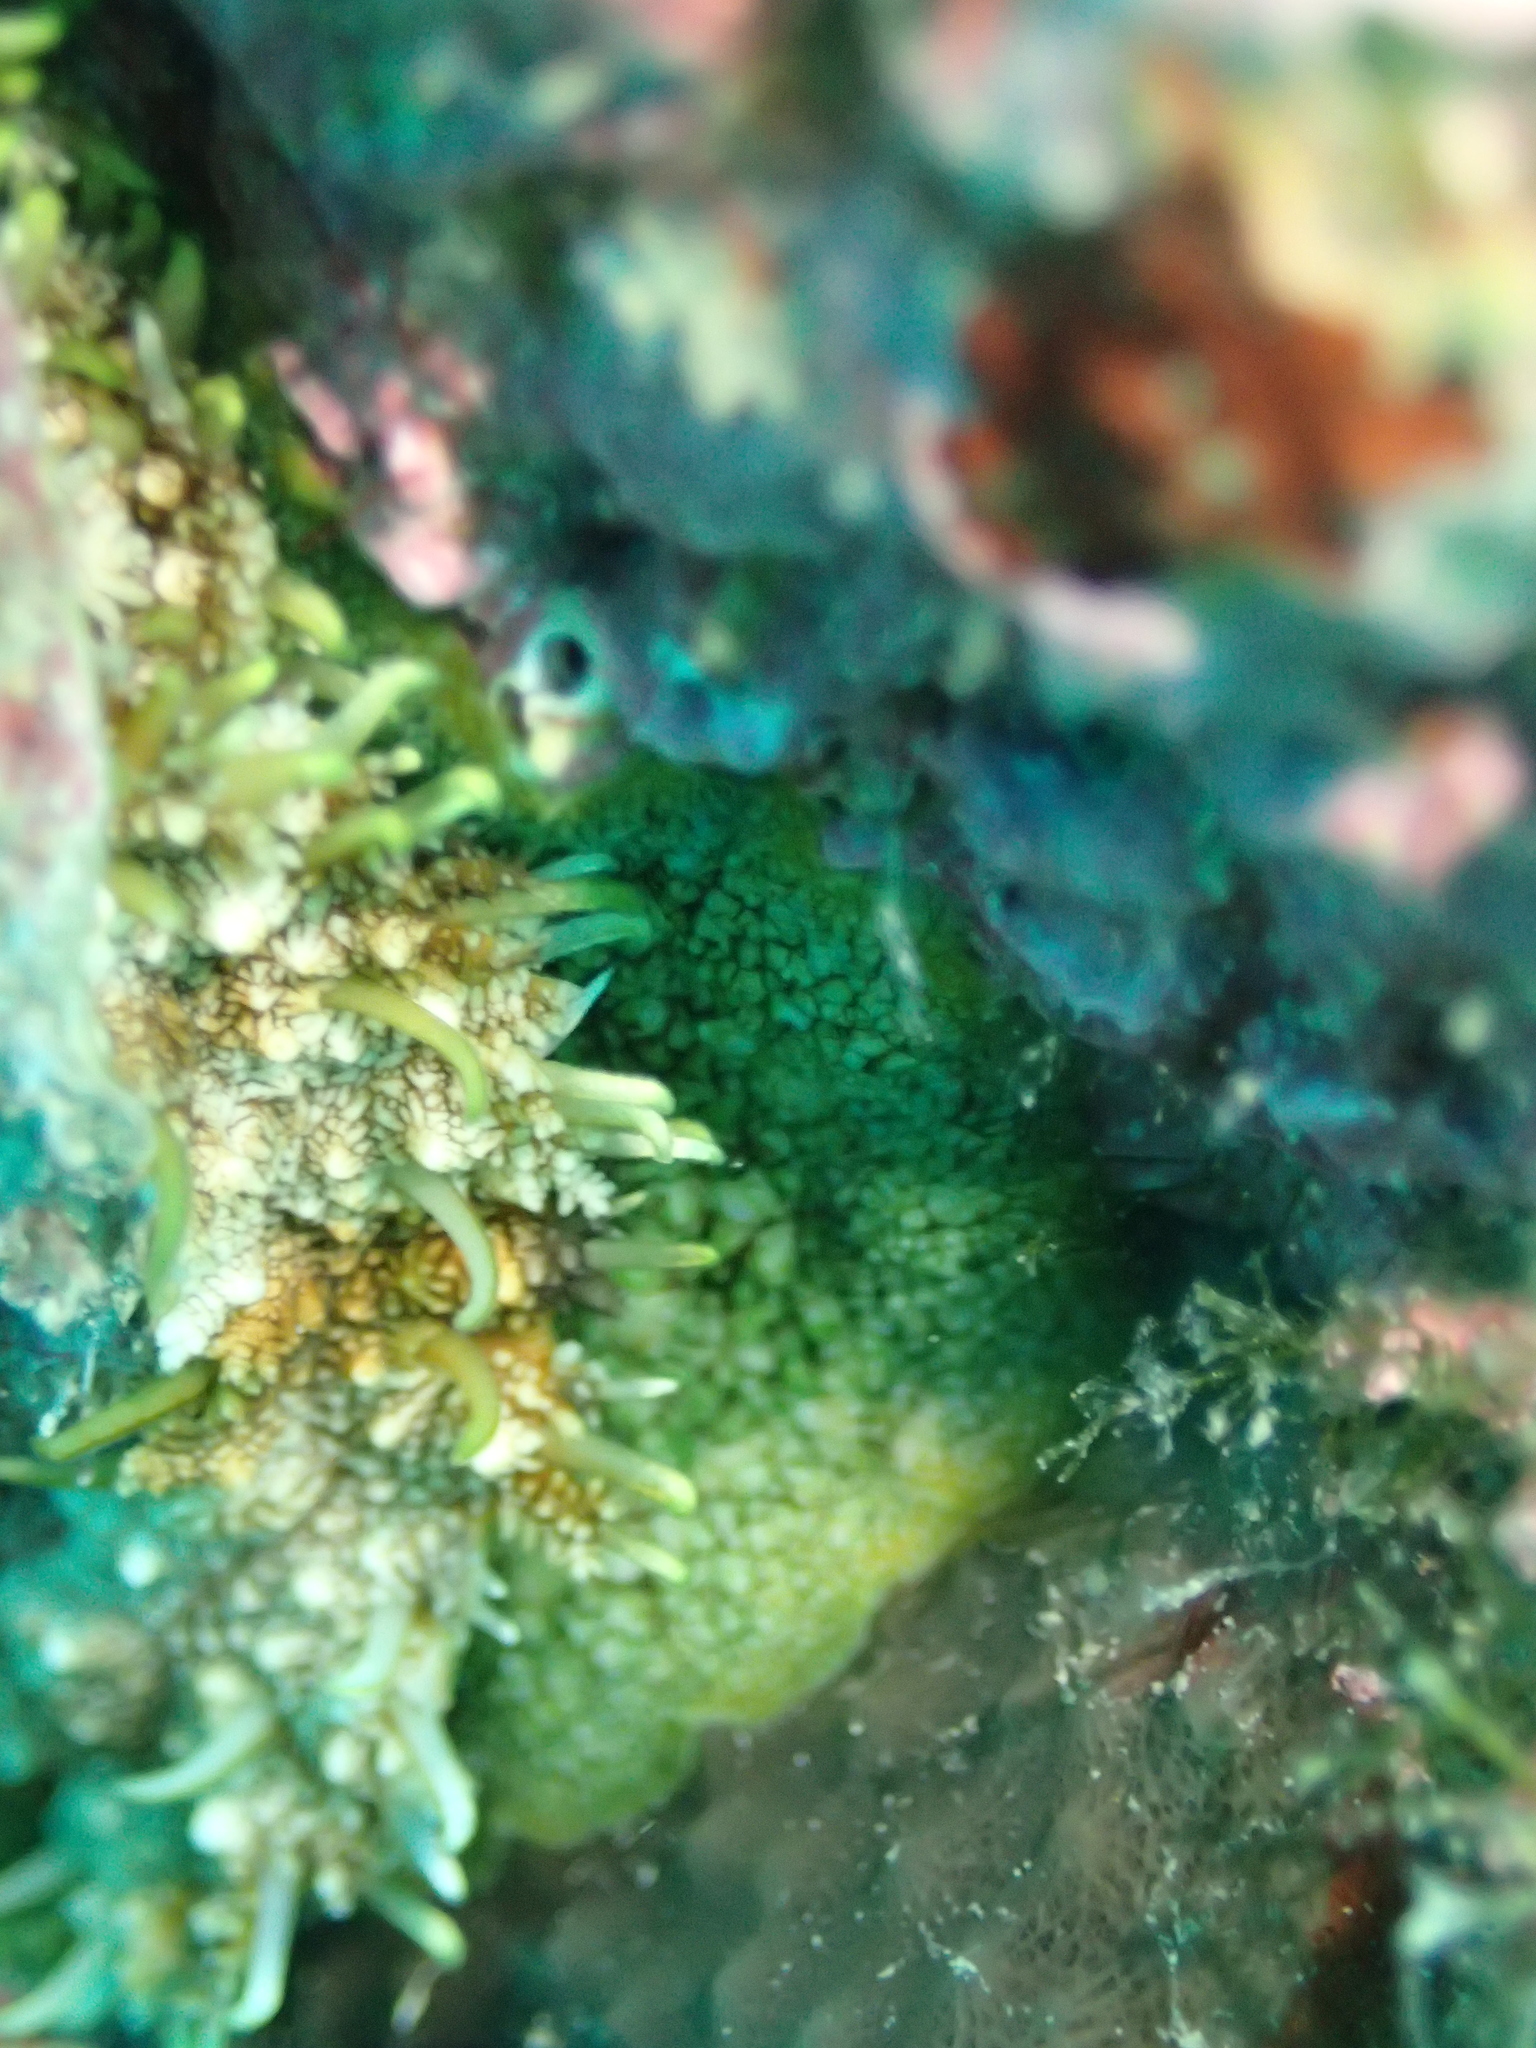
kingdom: Animalia
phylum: Mollusca
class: Gastropoda
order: Lepetellida
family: Haliotidae
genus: Haliotis
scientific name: Haliotis tuberculata
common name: Green ormer
